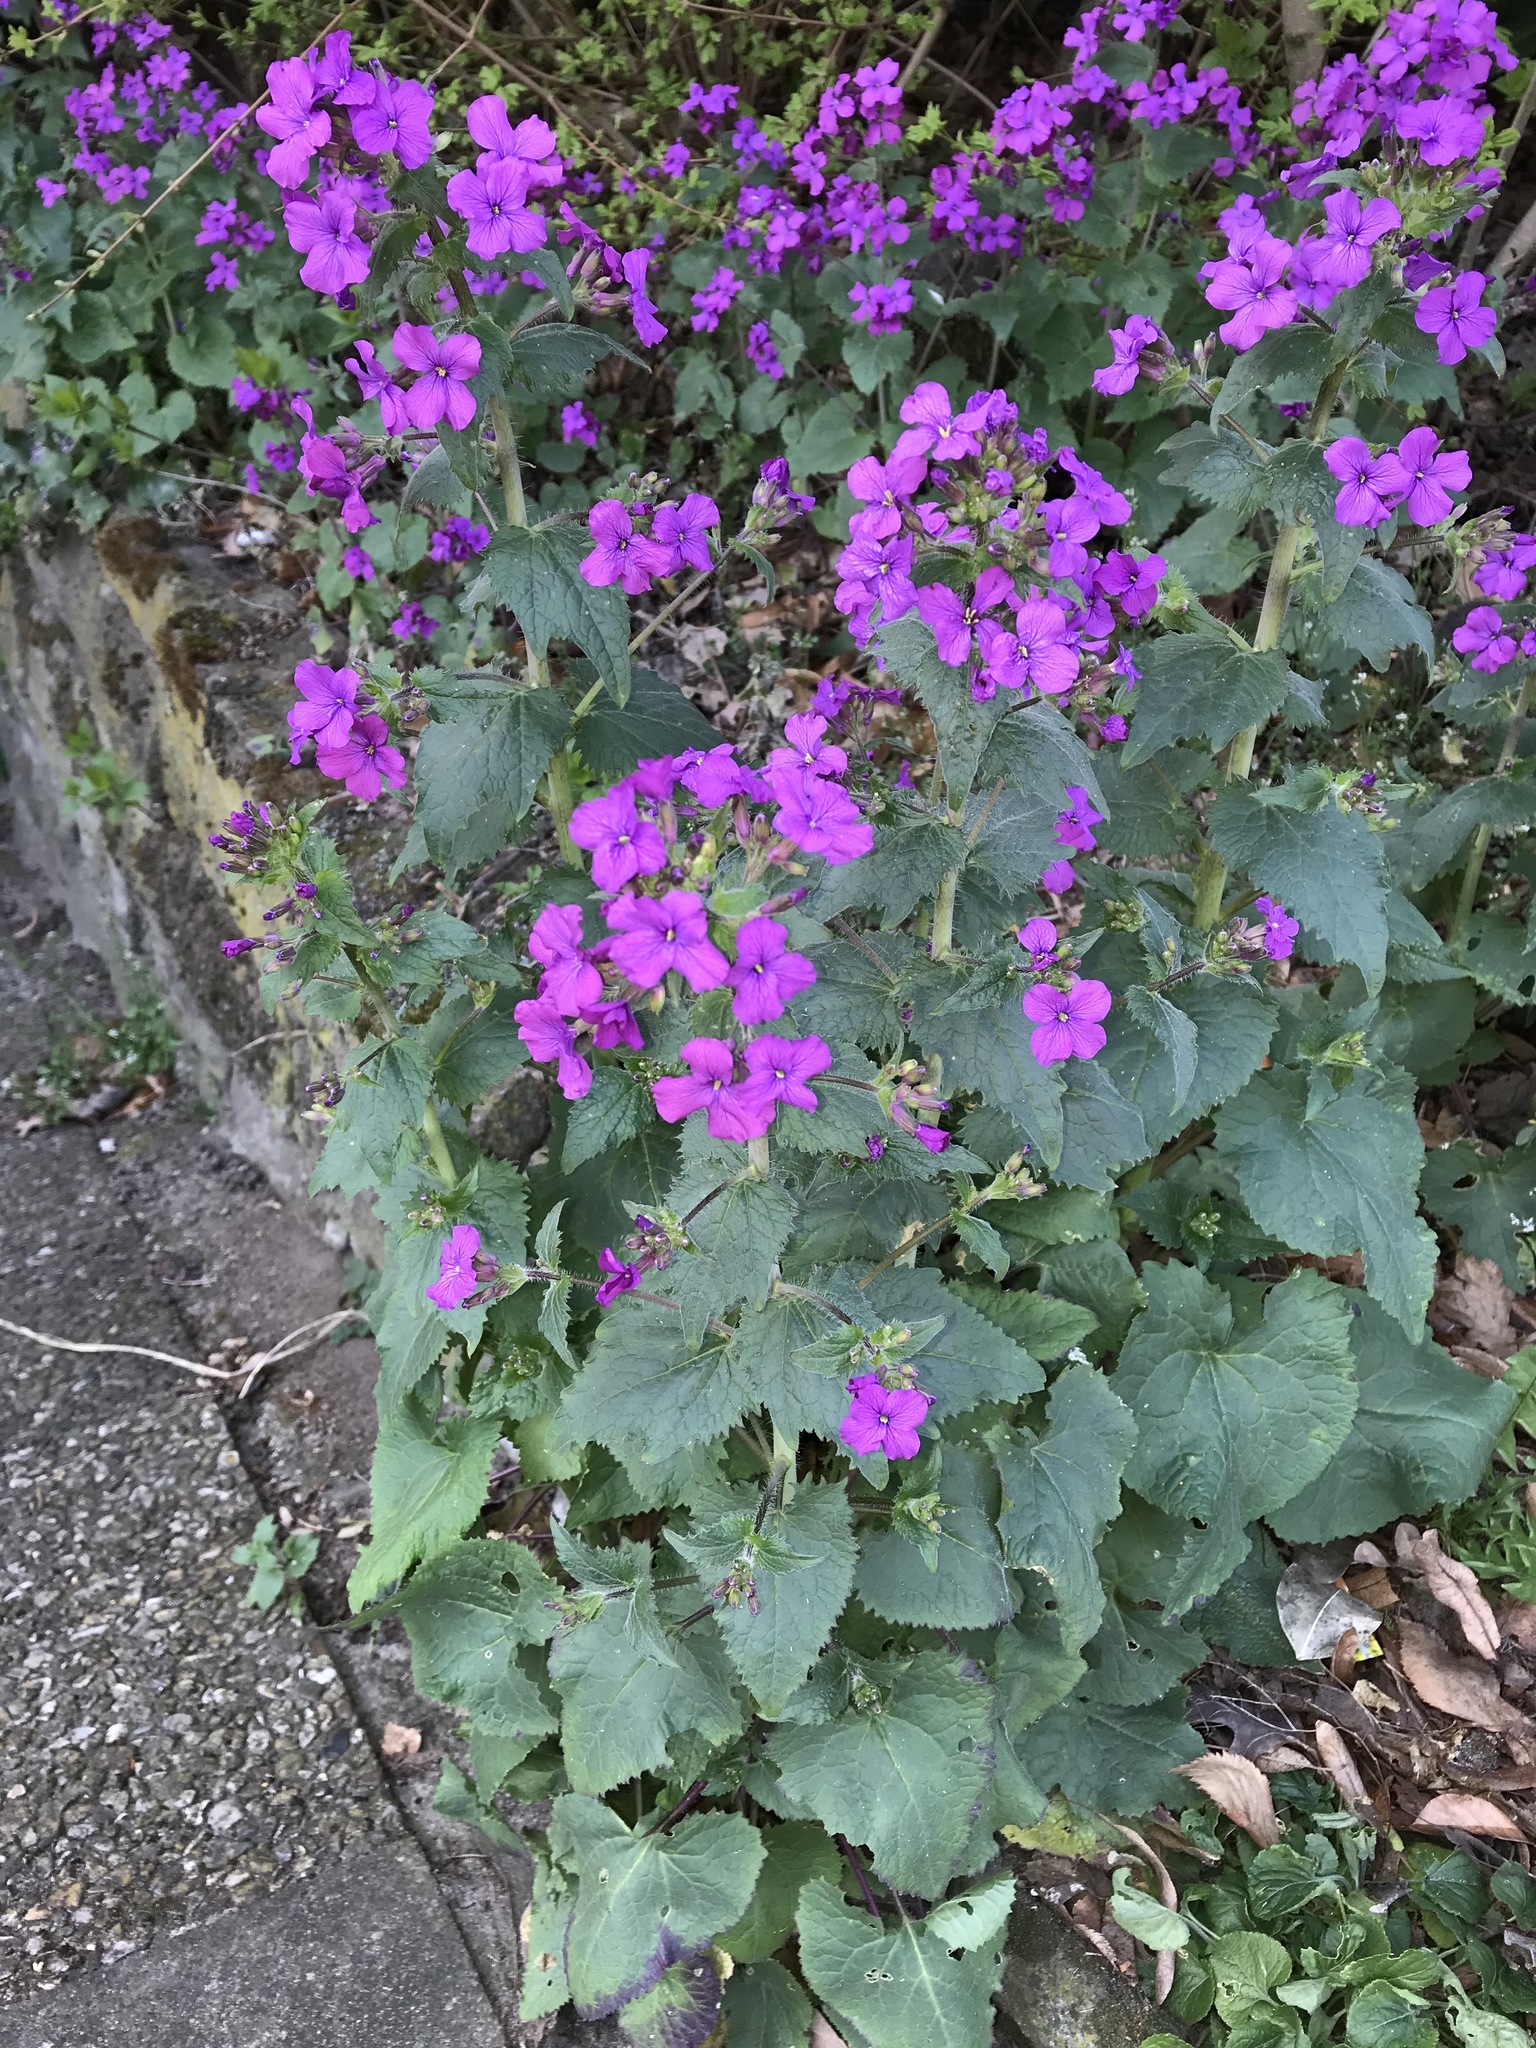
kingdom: Plantae
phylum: Tracheophyta
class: Magnoliopsida
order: Brassicales
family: Brassicaceae
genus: Lunaria
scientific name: Lunaria annua
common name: Honesty
